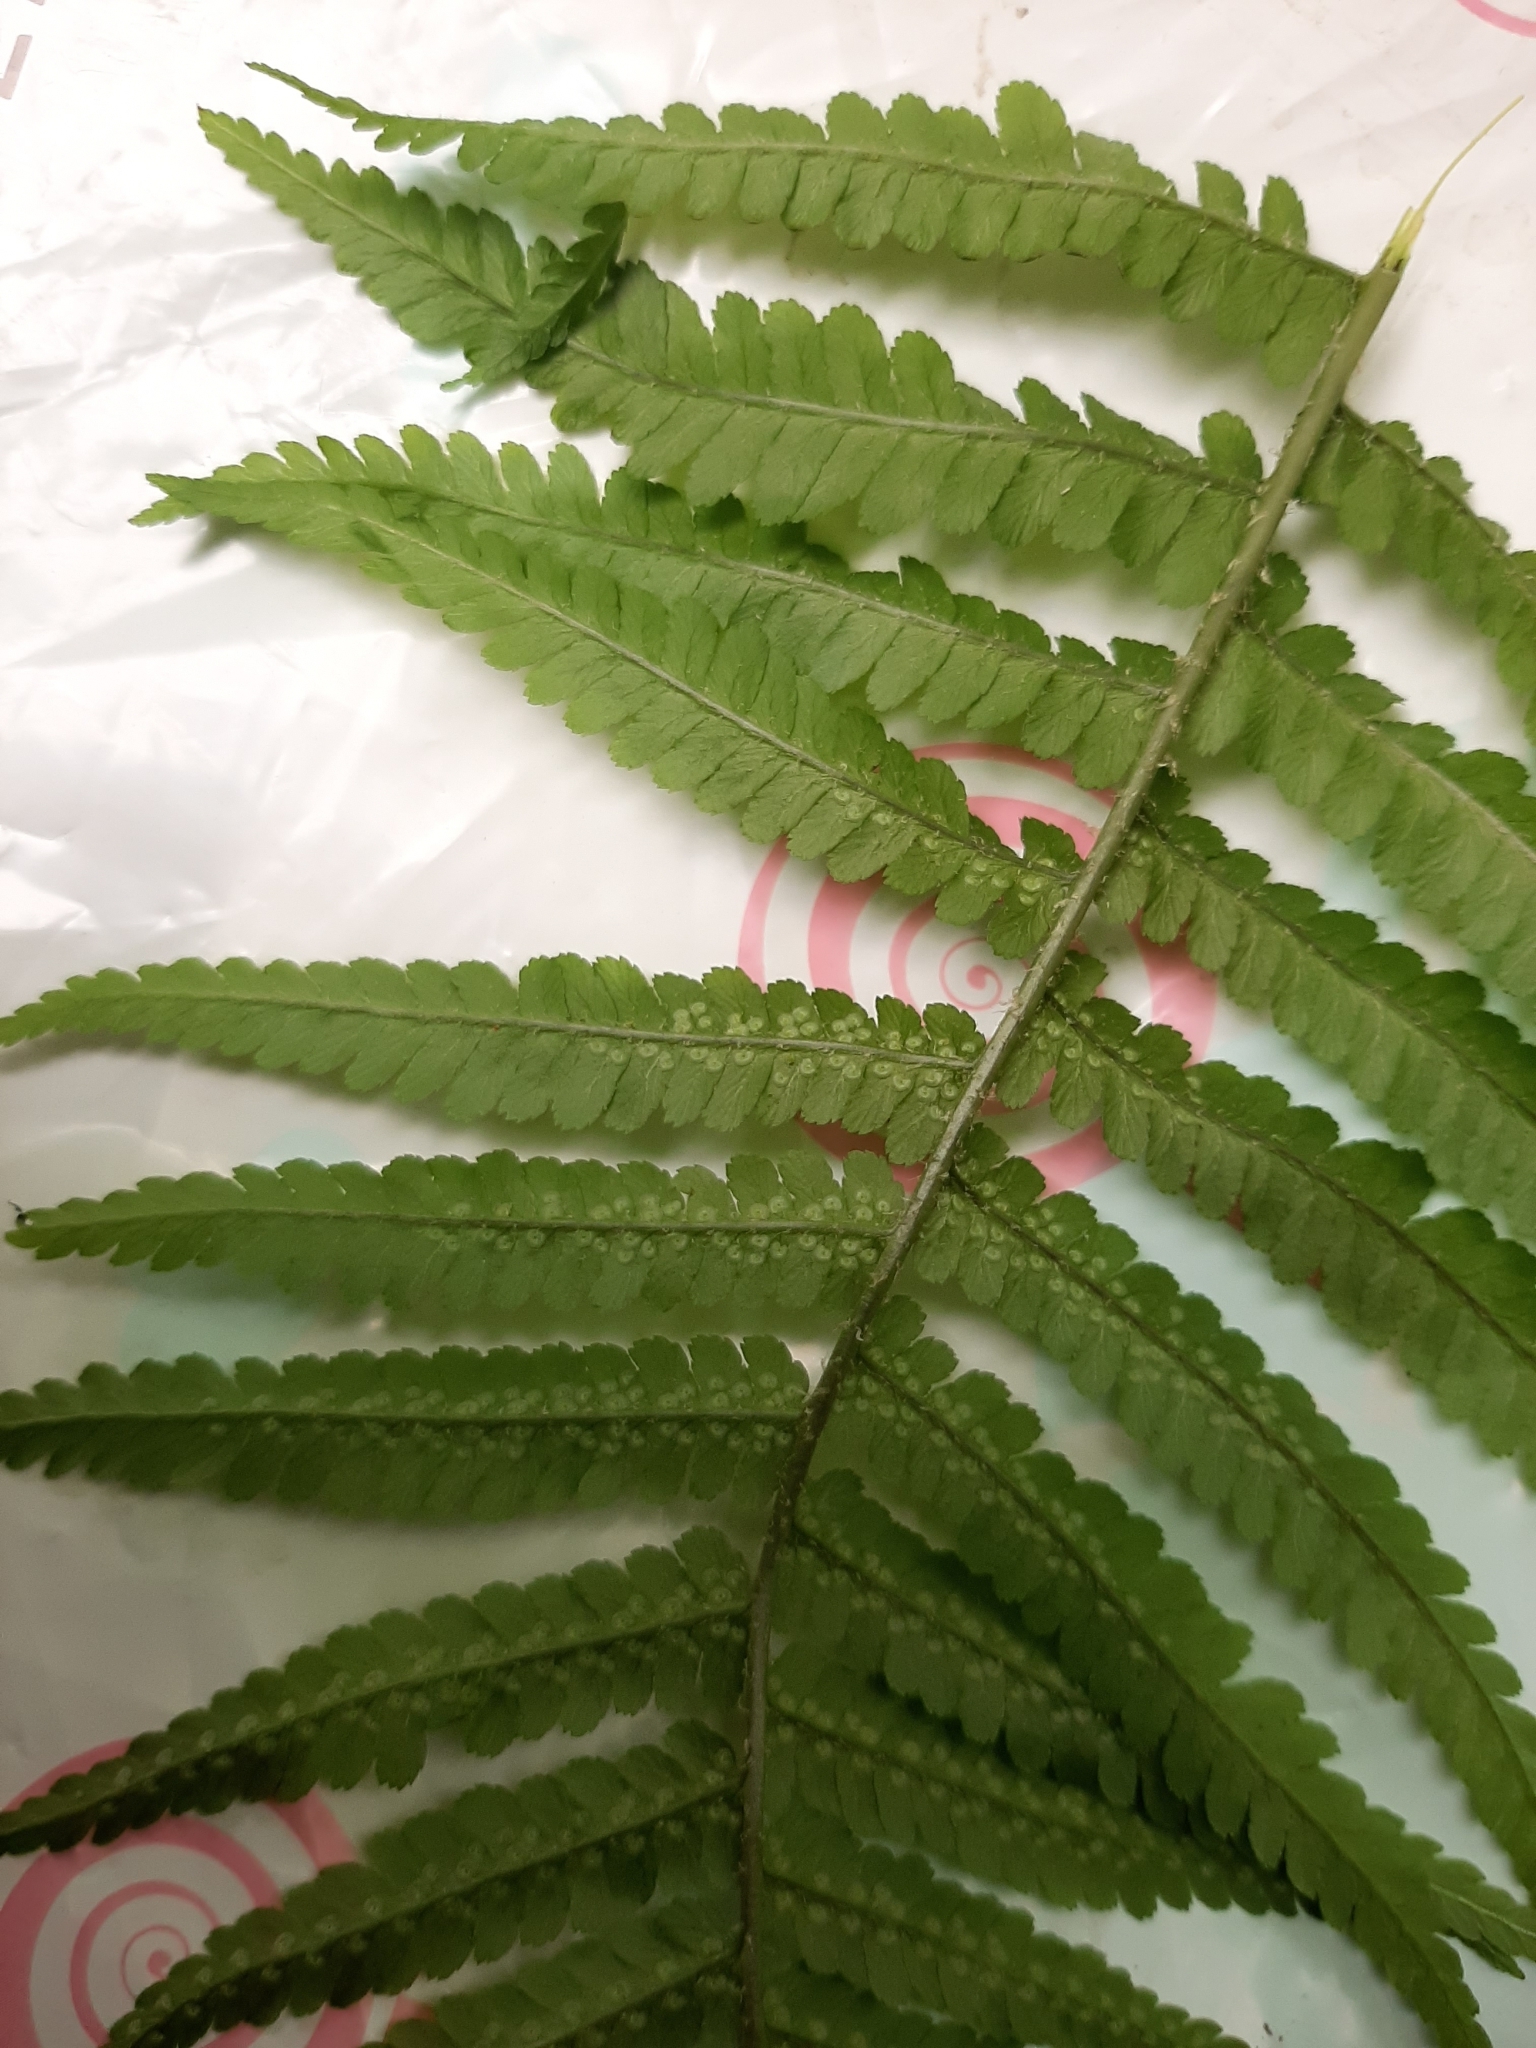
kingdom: Plantae
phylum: Tracheophyta
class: Polypodiopsida
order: Polypodiales
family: Dryopteridaceae
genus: Dryopteris
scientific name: Dryopteris filix-mas
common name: Male fern
